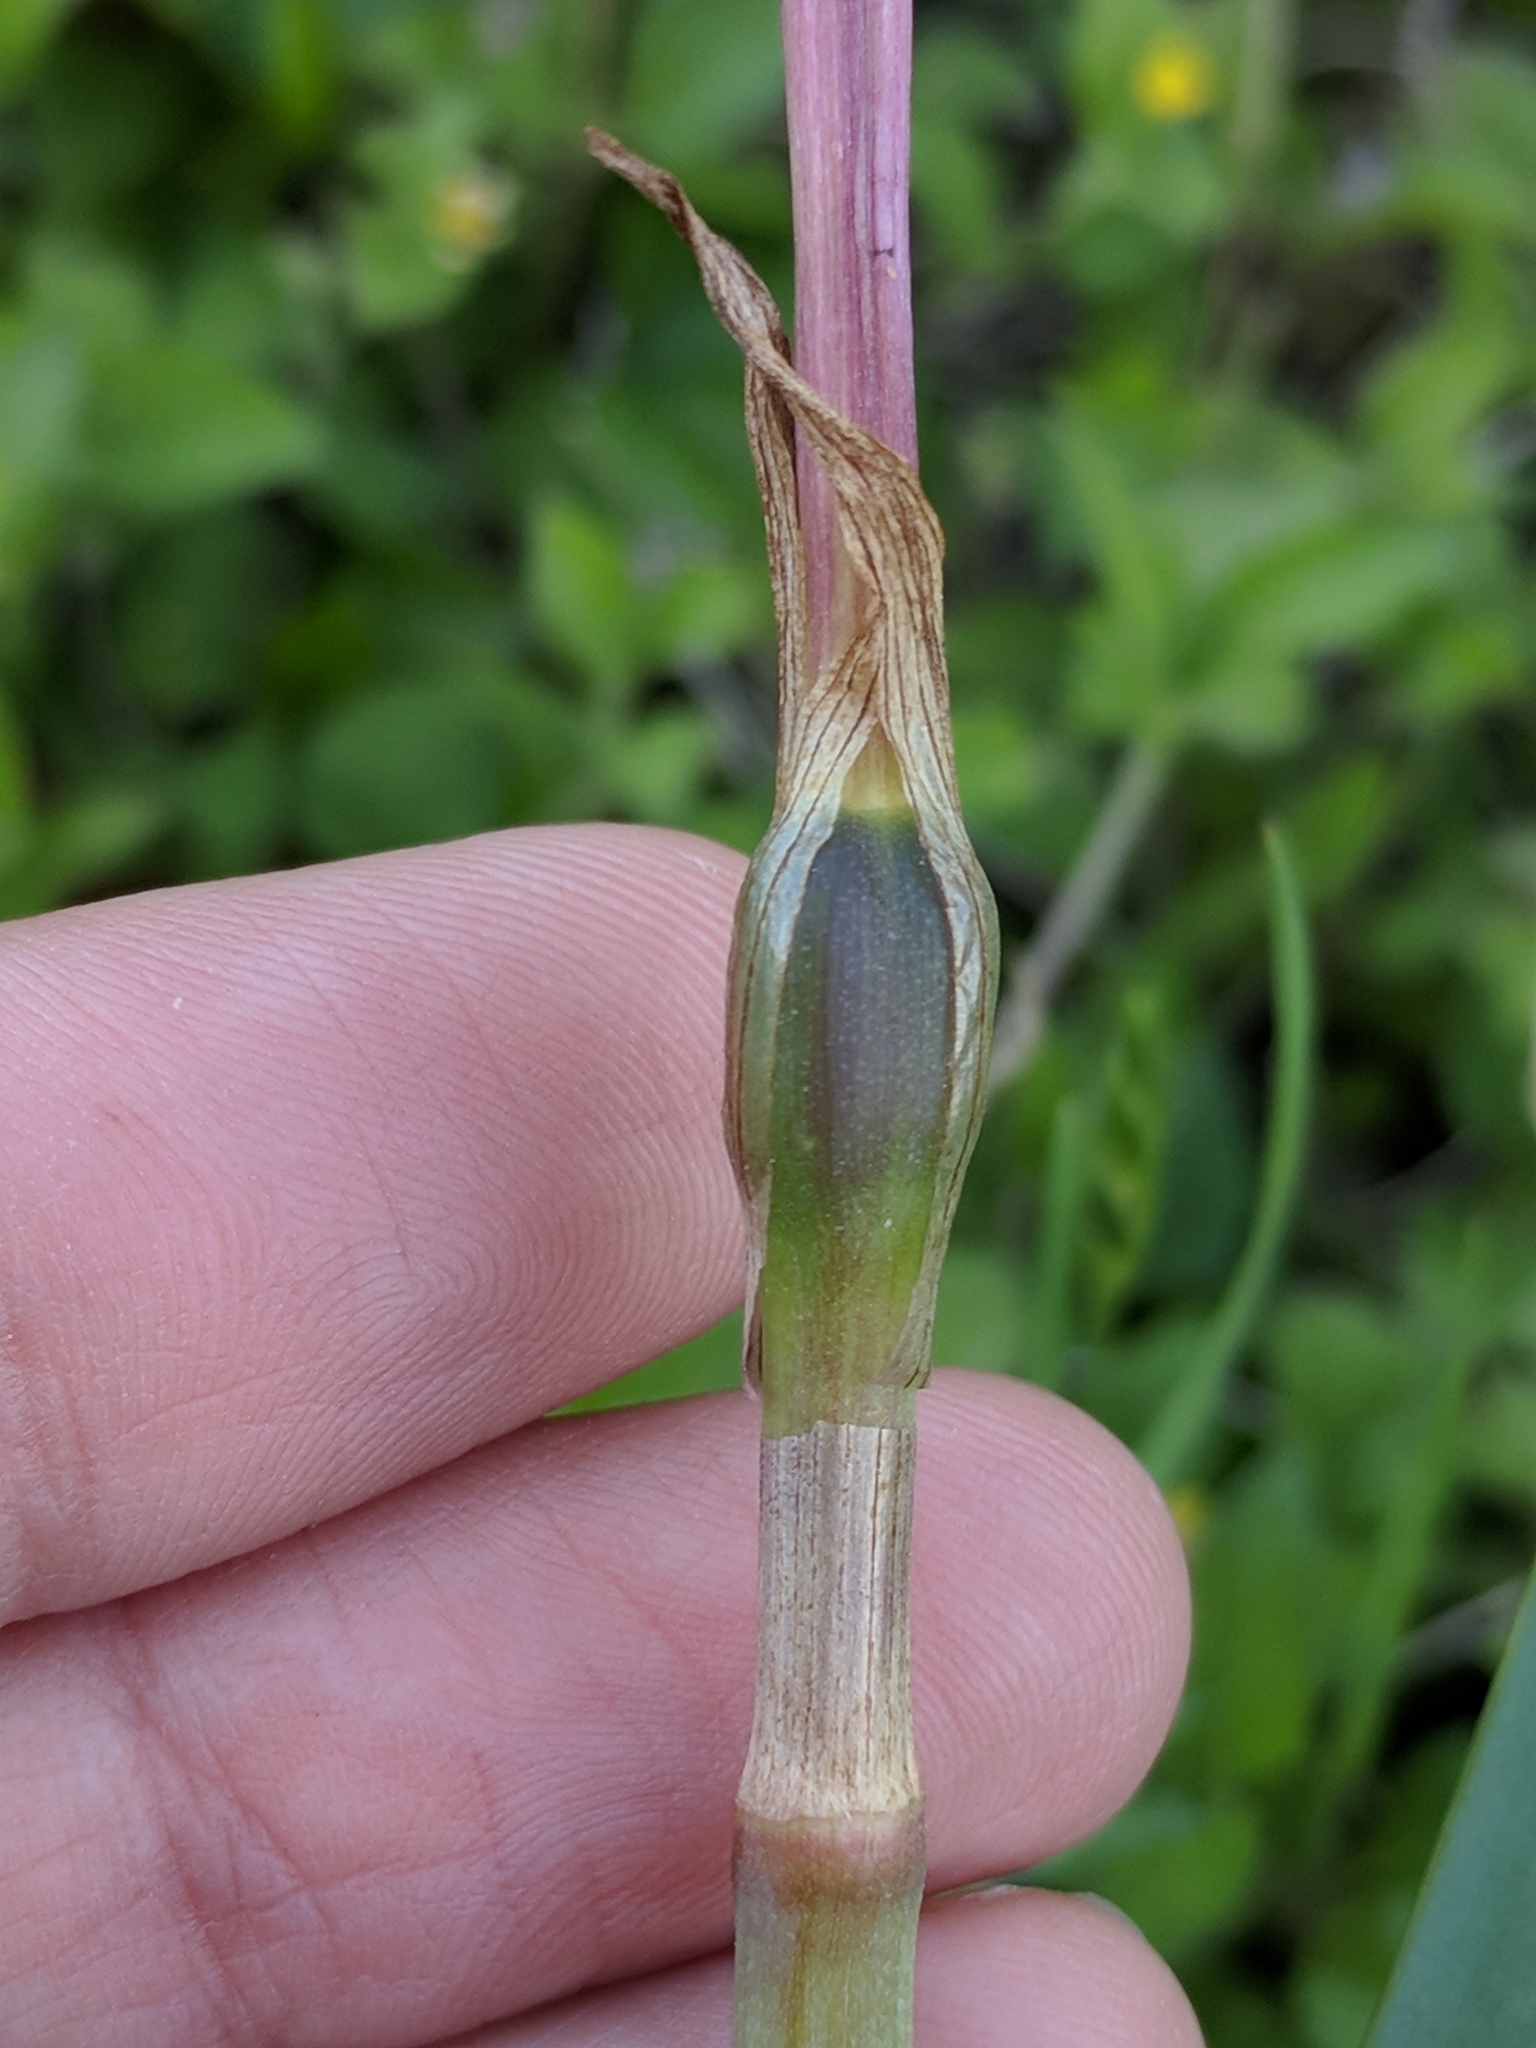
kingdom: Plantae
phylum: Tracheophyta
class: Liliopsida
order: Asparagales
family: Amaryllidaceae
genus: Zephyranthes
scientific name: Zephyranthes drummondii
